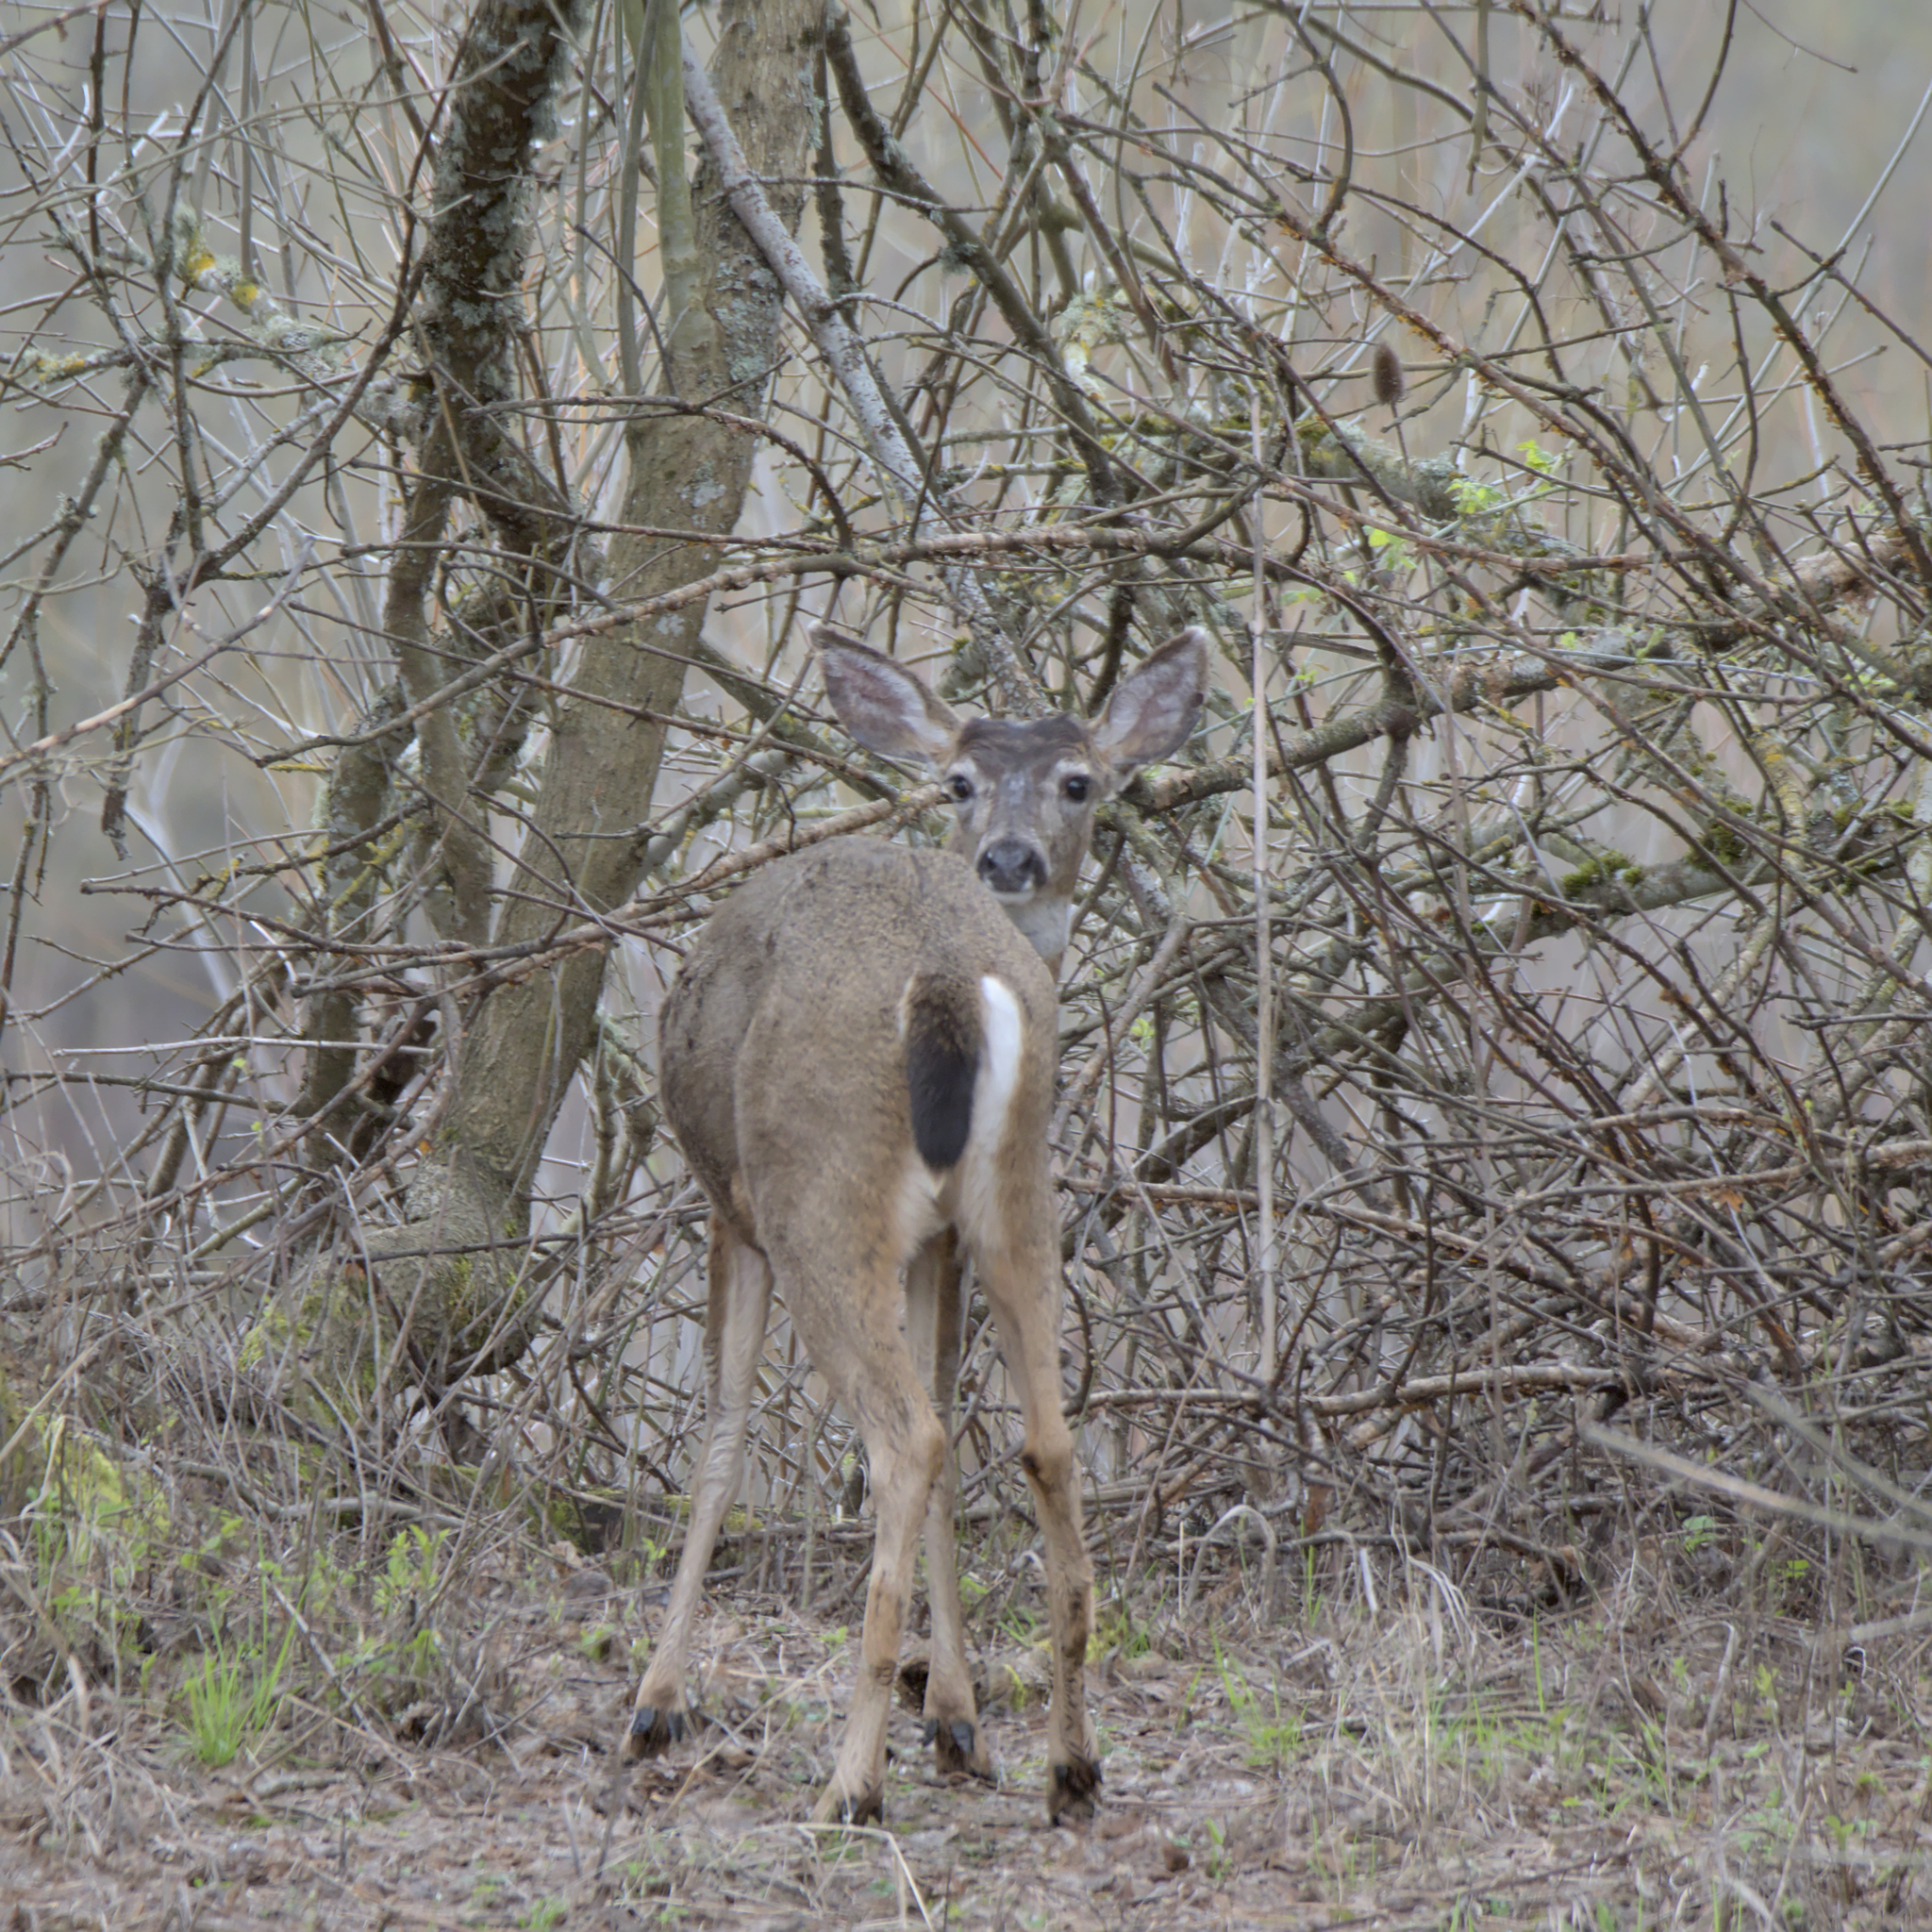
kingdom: Animalia
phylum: Chordata
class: Mammalia
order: Artiodactyla
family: Cervidae
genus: Odocoileus
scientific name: Odocoileus hemionus
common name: Mule deer
